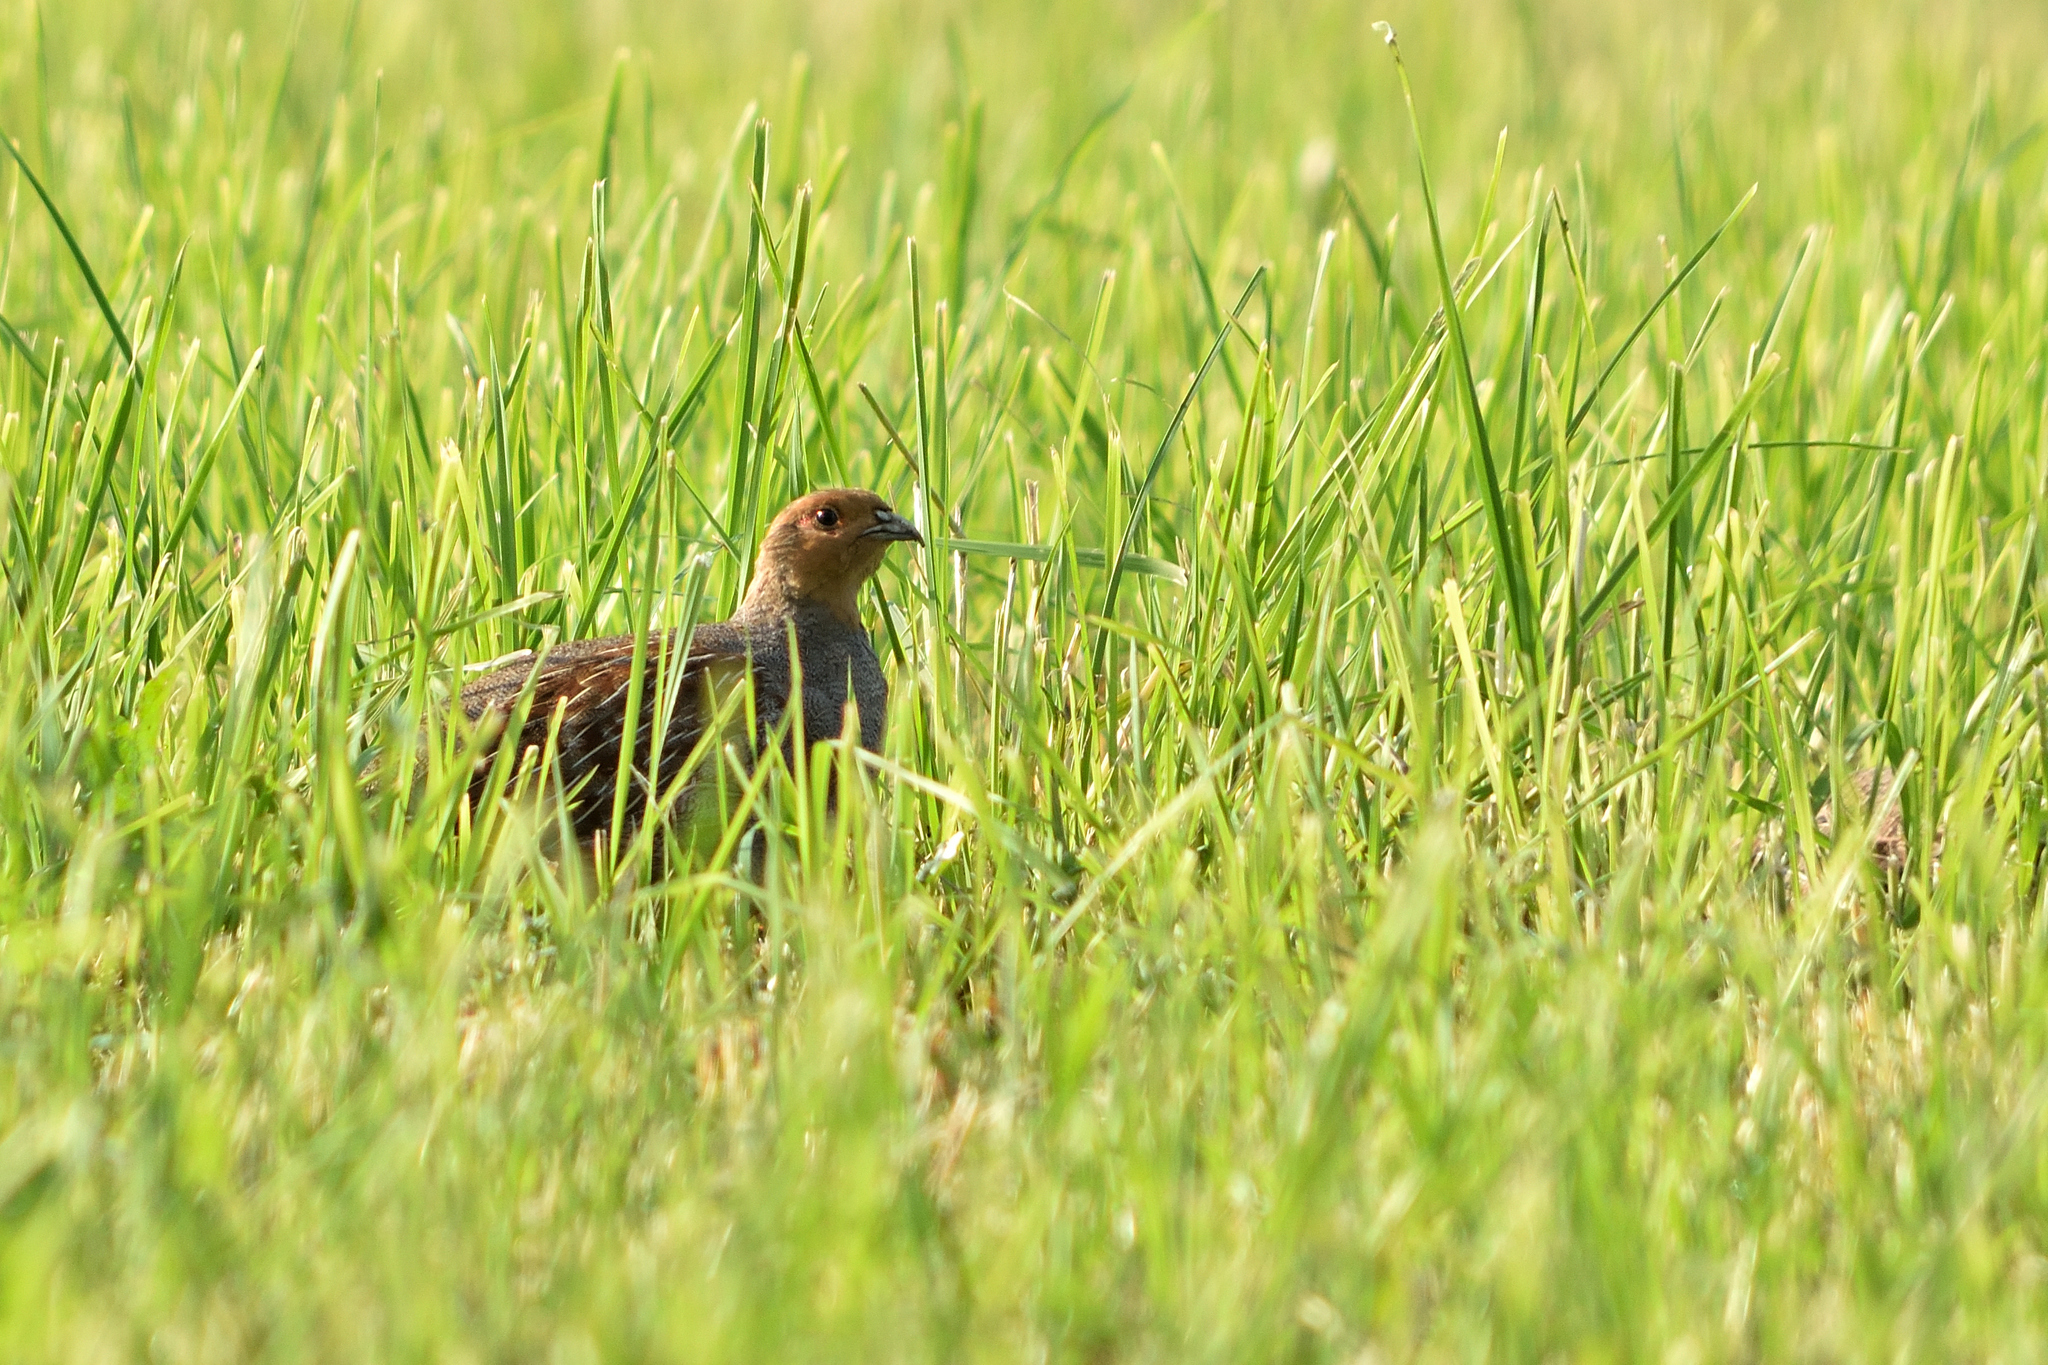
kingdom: Animalia
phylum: Chordata
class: Aves
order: Galliformes
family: Phasianidae
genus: Perdix
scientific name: Perdix perdix
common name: Grey partridge
